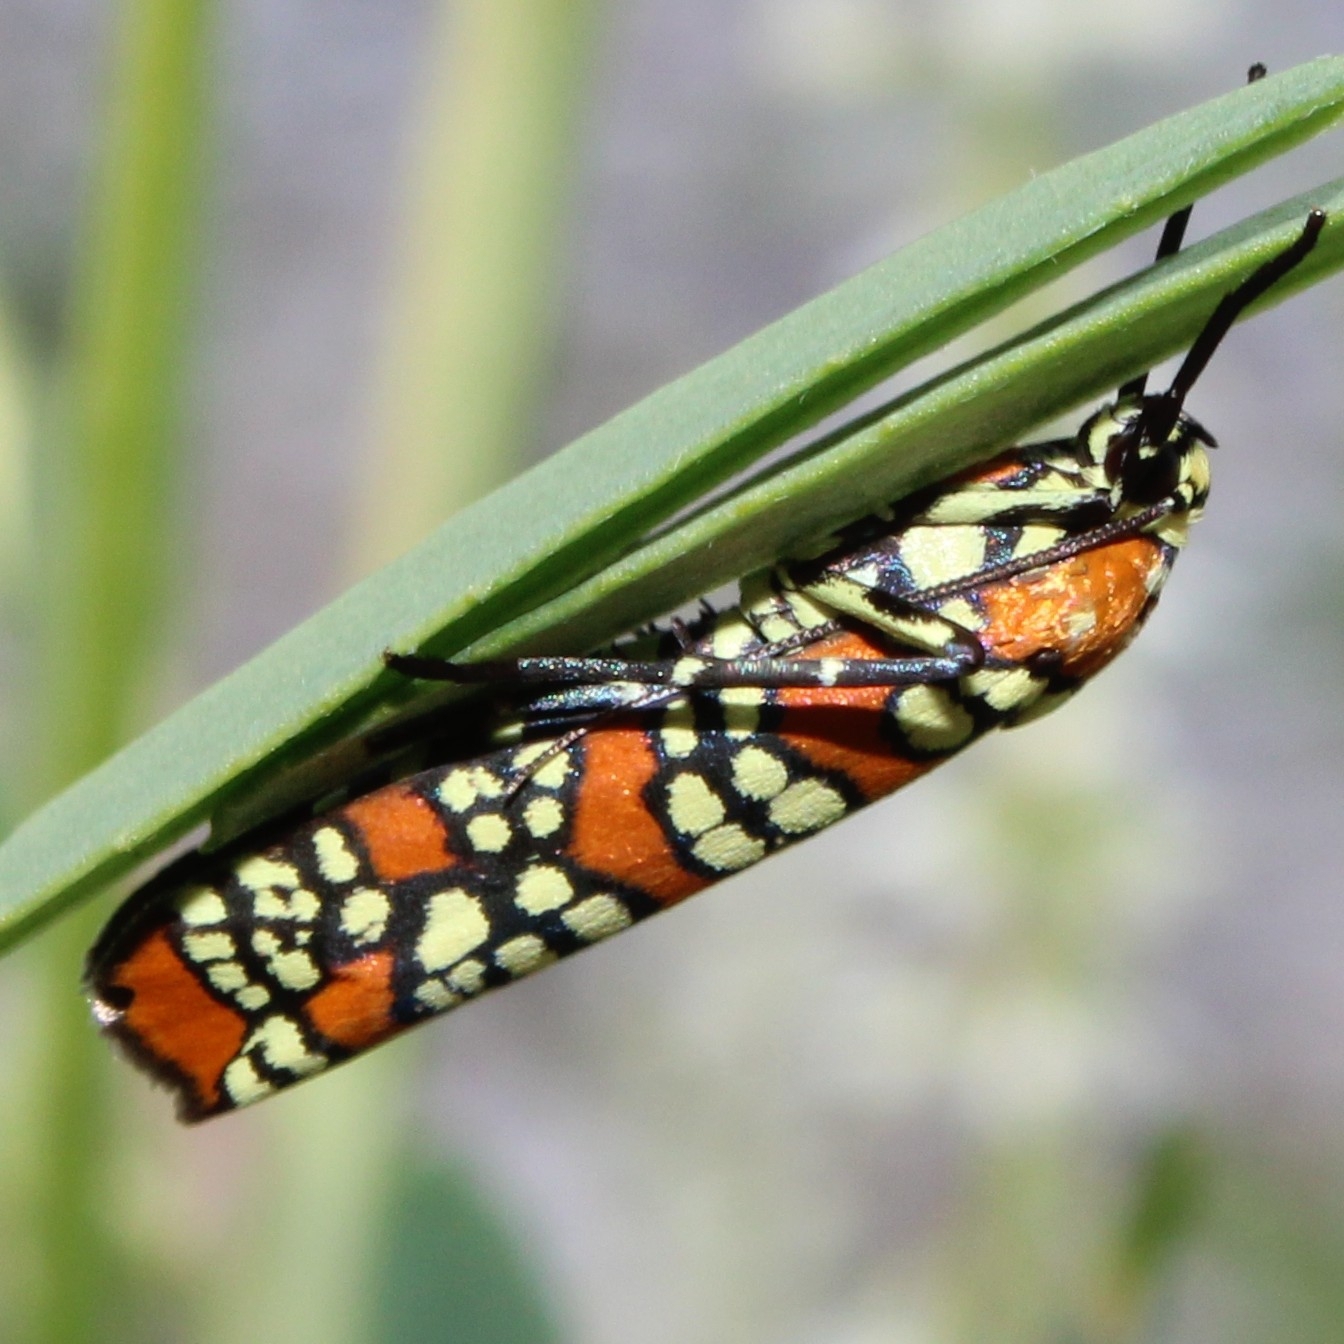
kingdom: Animalia
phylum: Arthropoda
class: Insecta
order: Lepidoptera
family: Attevidae
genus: Atteva
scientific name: Atteva punctella
